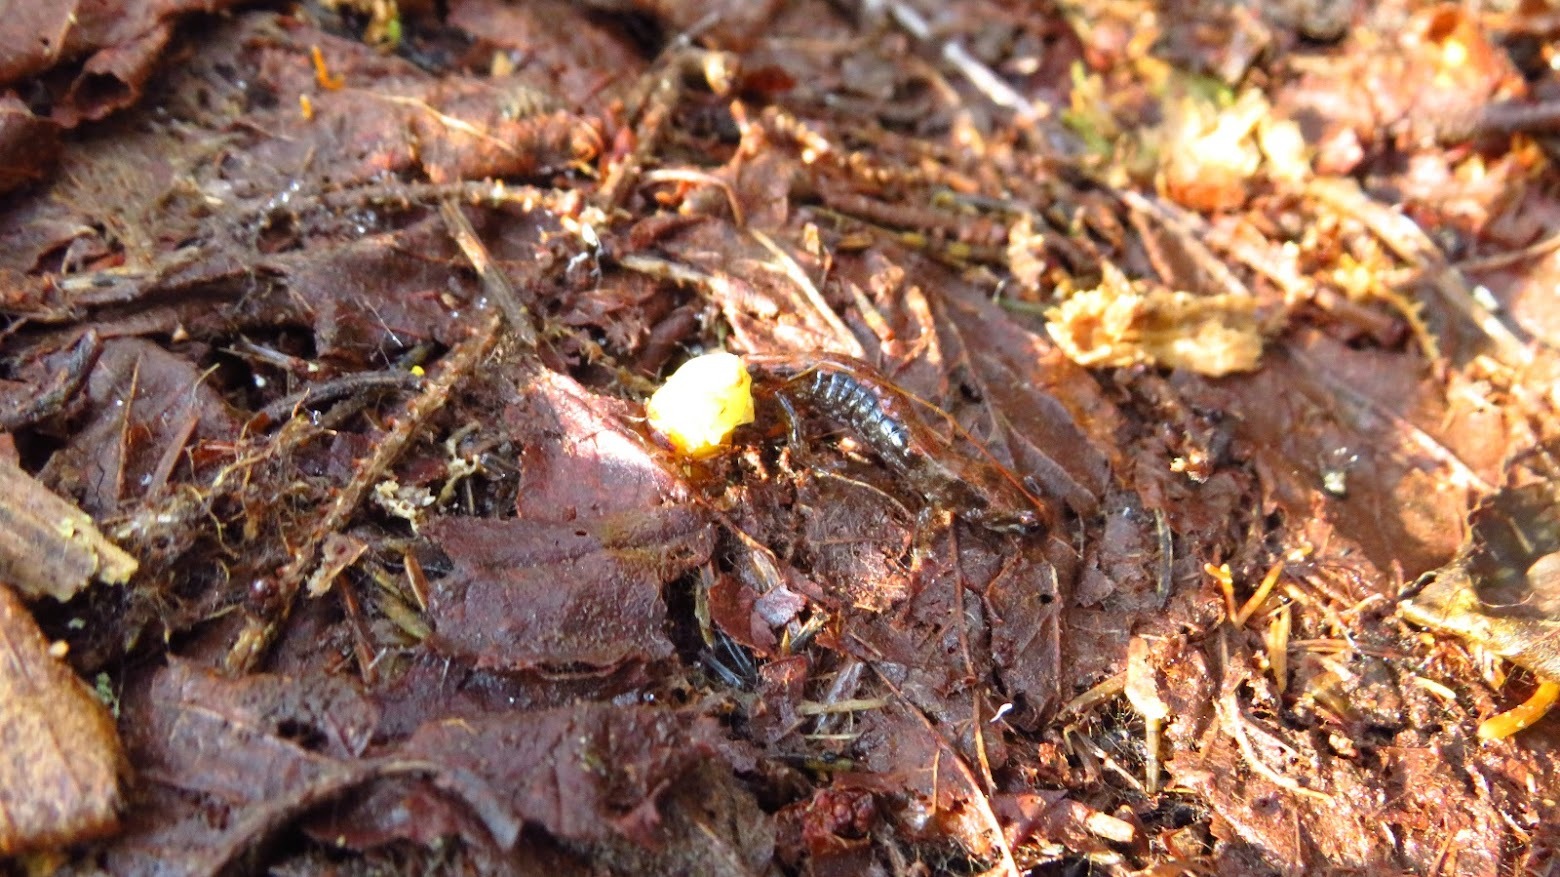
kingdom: Animalia
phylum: Chordata
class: Amphibia
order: Caudata
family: Plethodontidae
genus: Desmognathus
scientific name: Desmognathus adatsihi
